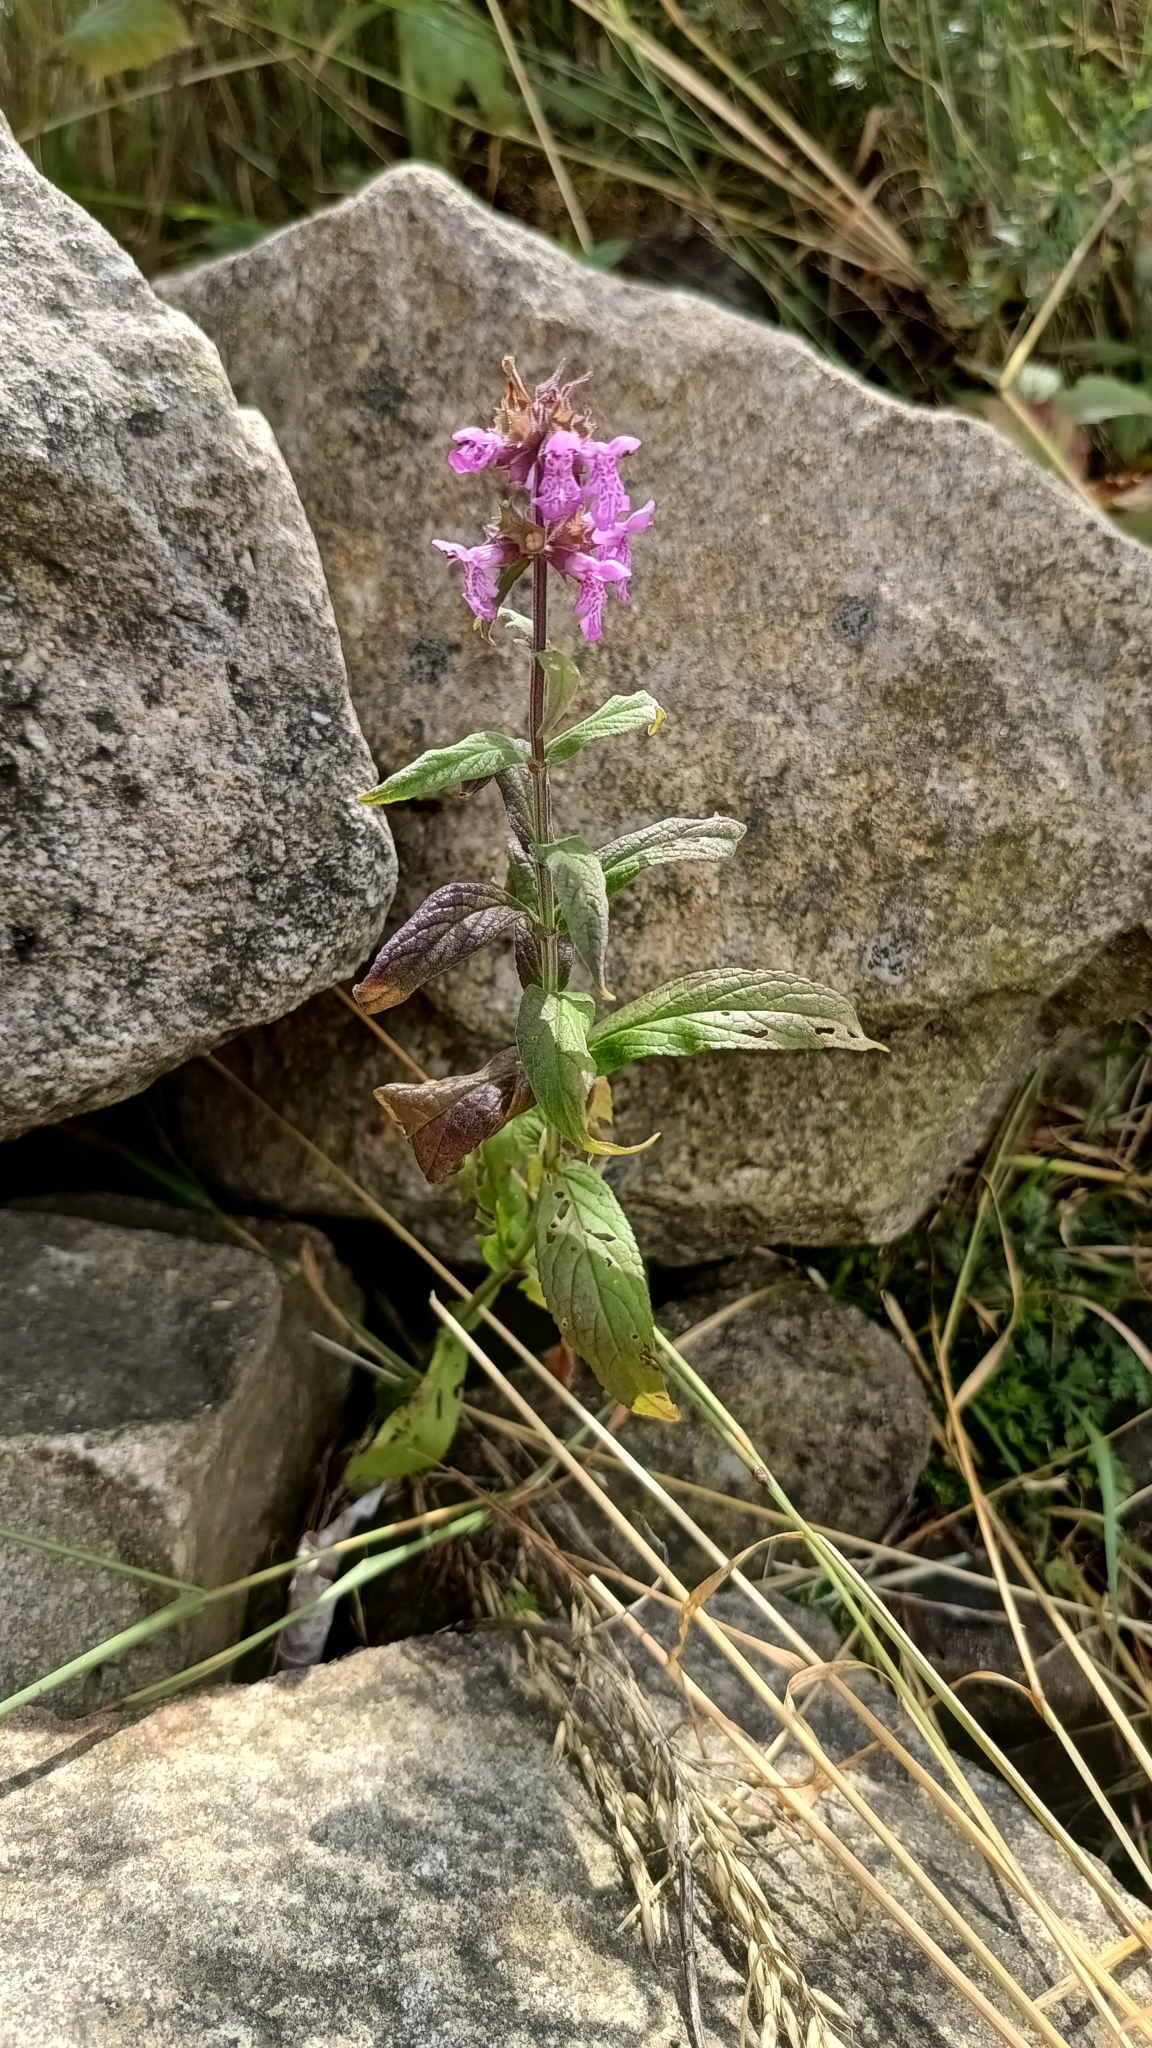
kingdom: Plantae
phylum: Tracheophyta
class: Magnoliopsida
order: Lamiales
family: Lamiaceae
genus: Stachys
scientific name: Stachys palustris
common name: Marsh woundwort
